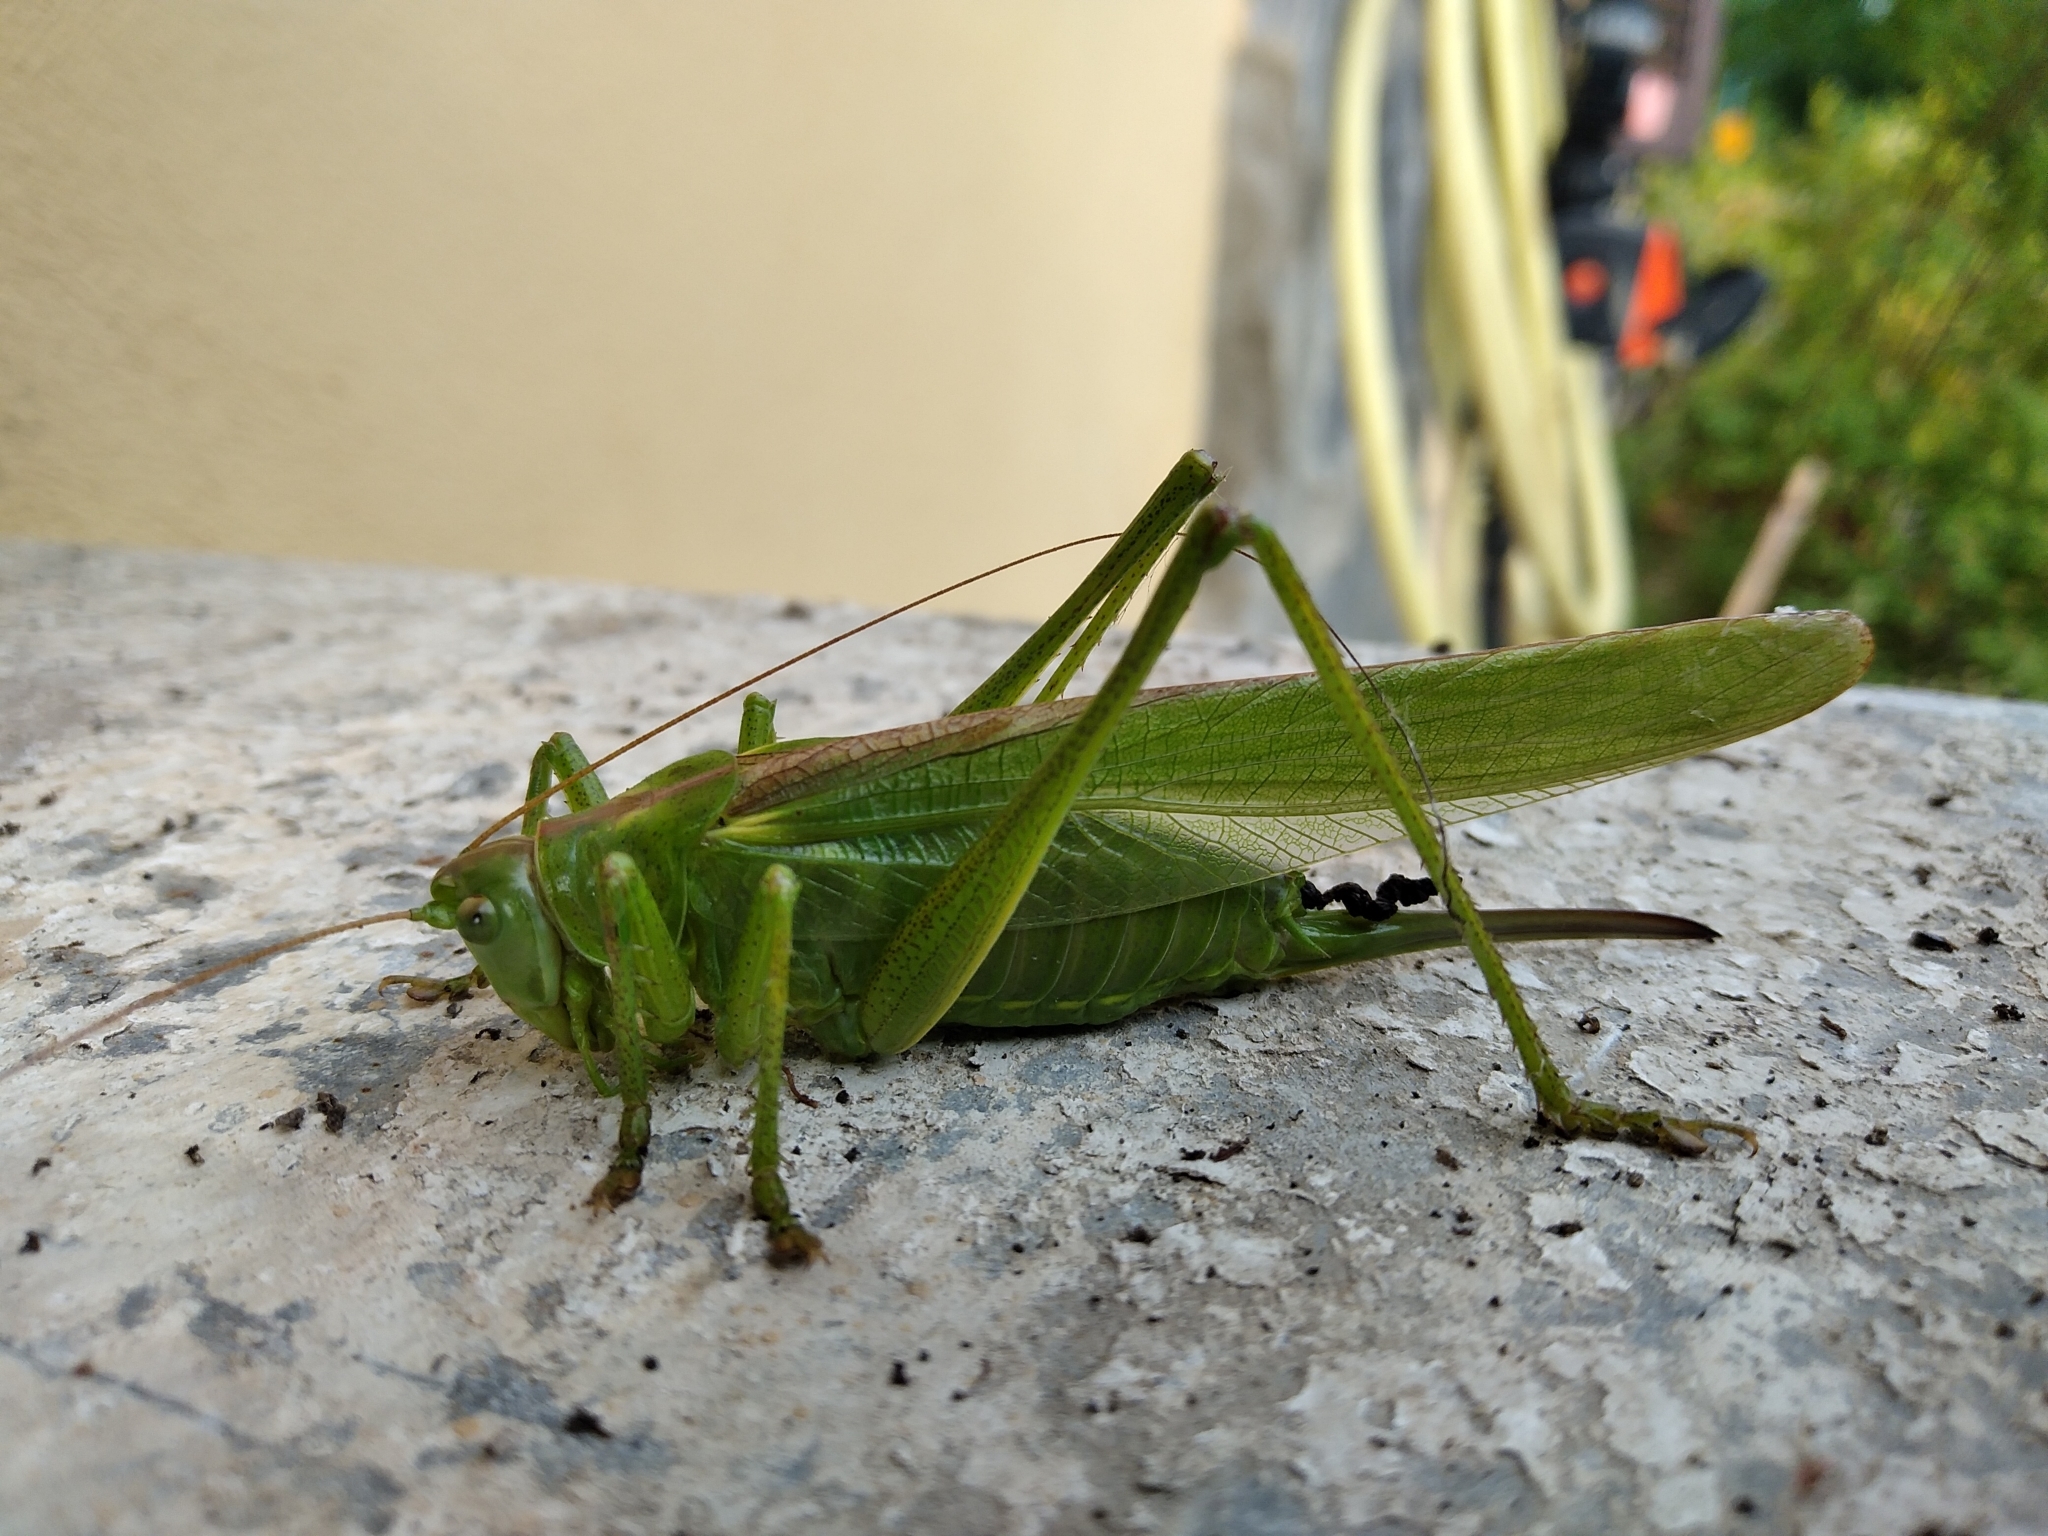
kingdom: Animalia
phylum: Arthropoda
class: Insecta
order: Orthoptera
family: Tettigoniidae
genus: Tettigonia
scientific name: Tettigonia viridissima
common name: Great green bush-cricket
